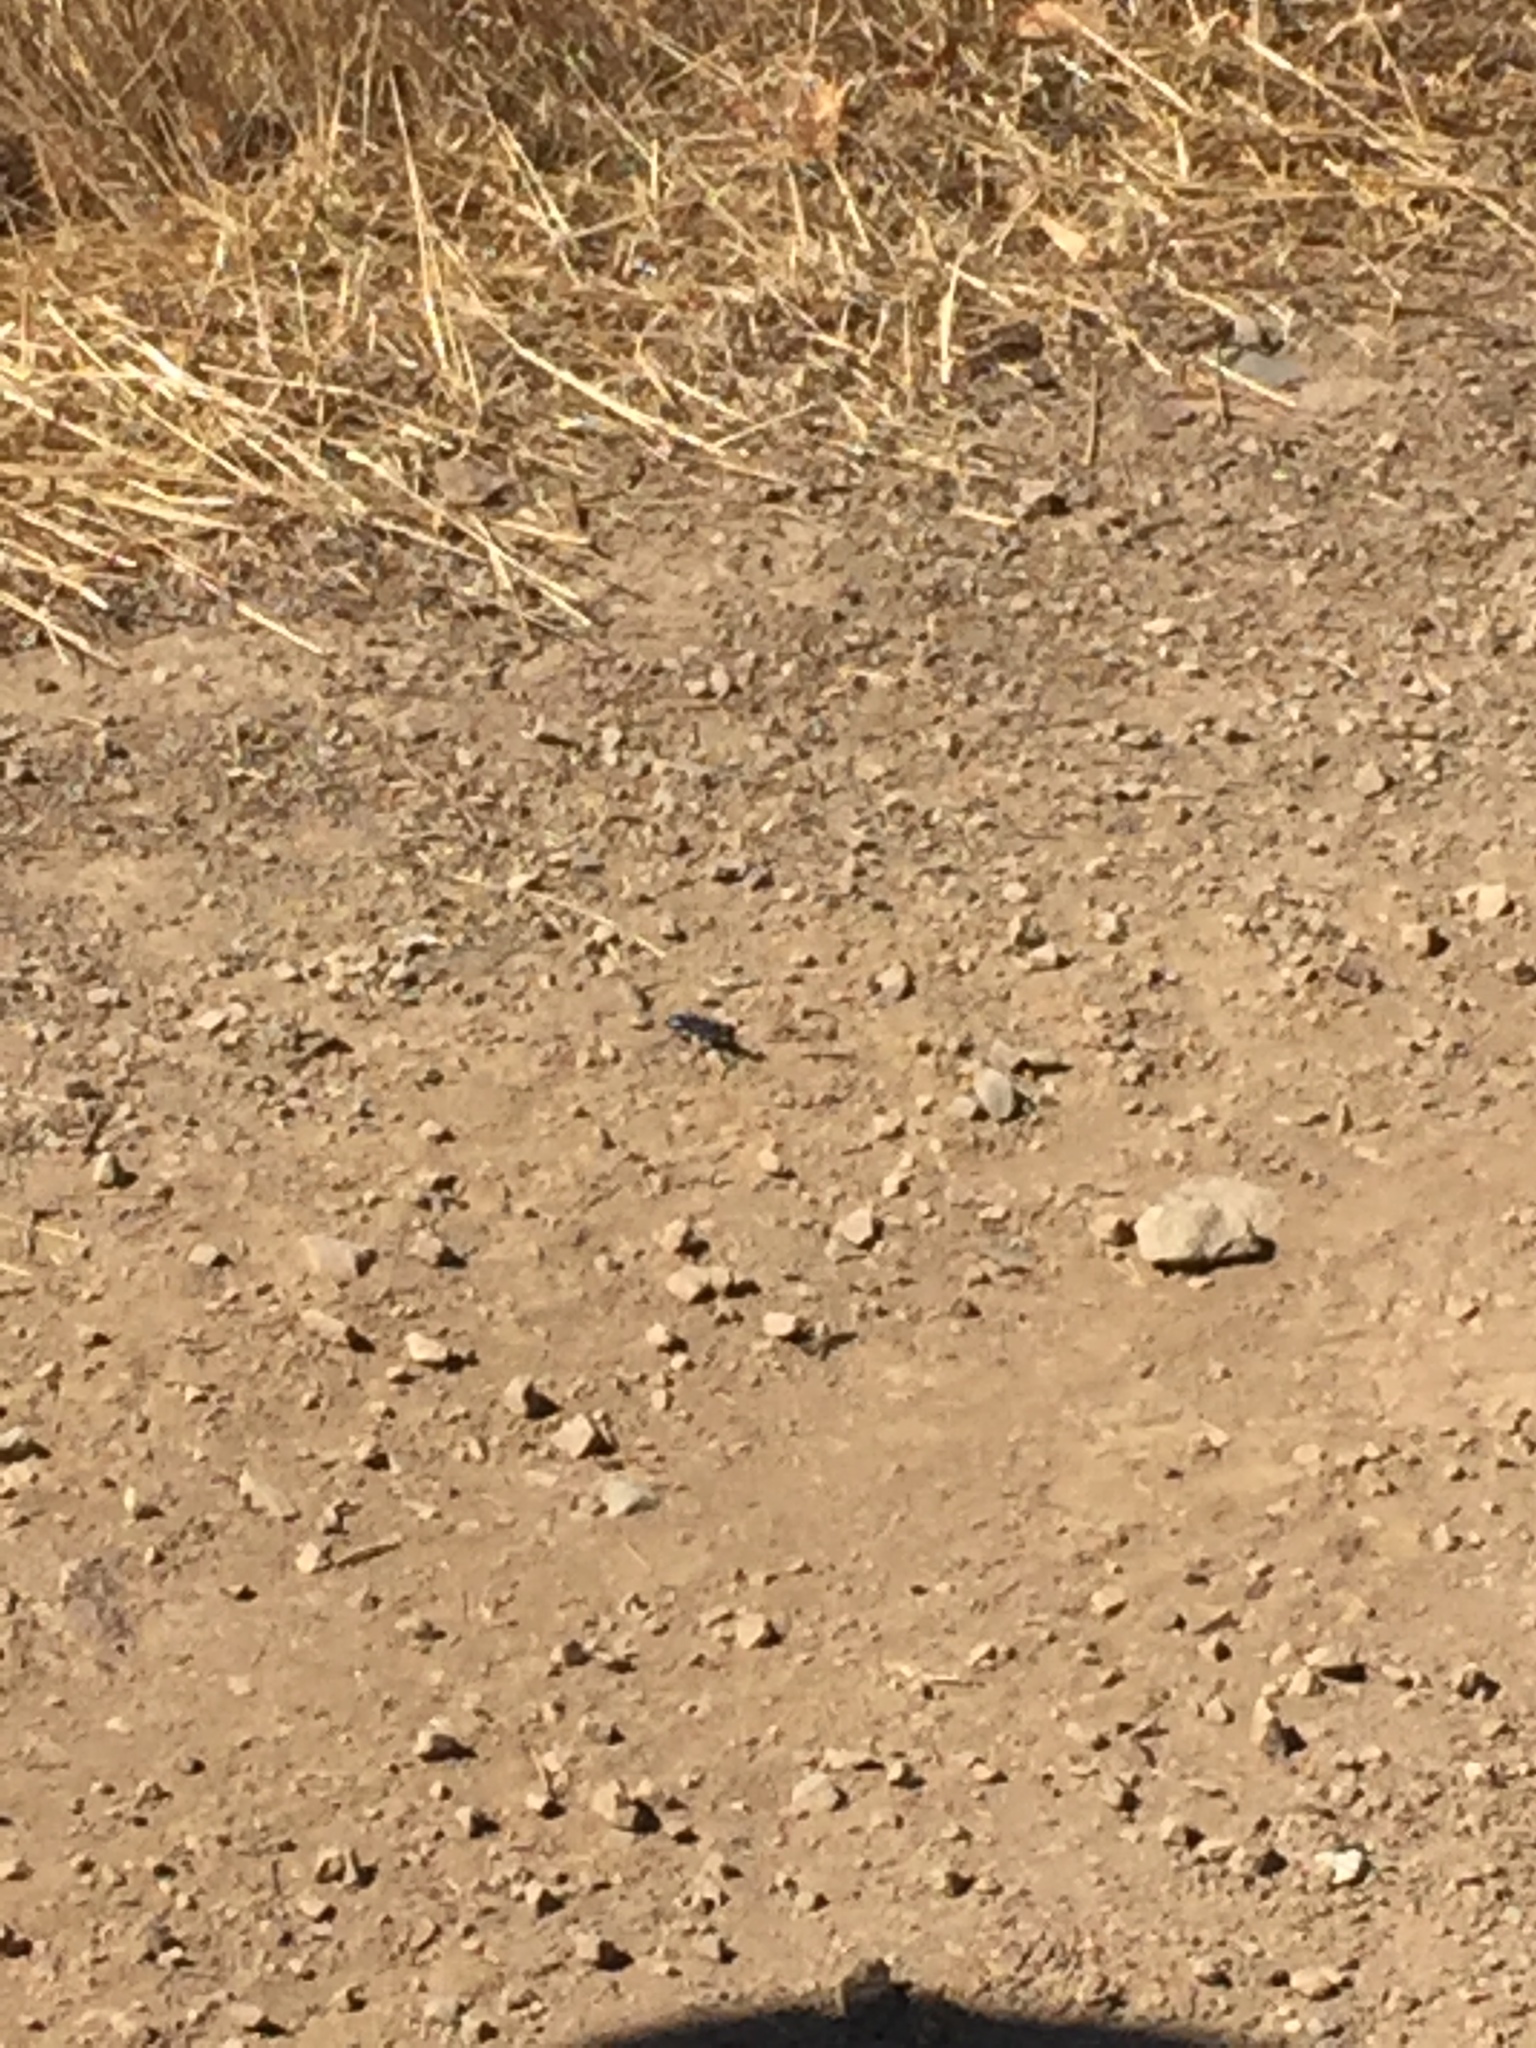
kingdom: Animalia
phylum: Arthropoda
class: Insecta
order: Hymenoptera
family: Sphecidae
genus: Chlorion
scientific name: Chlorion aerarium
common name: Steel-blue cricket hunter
